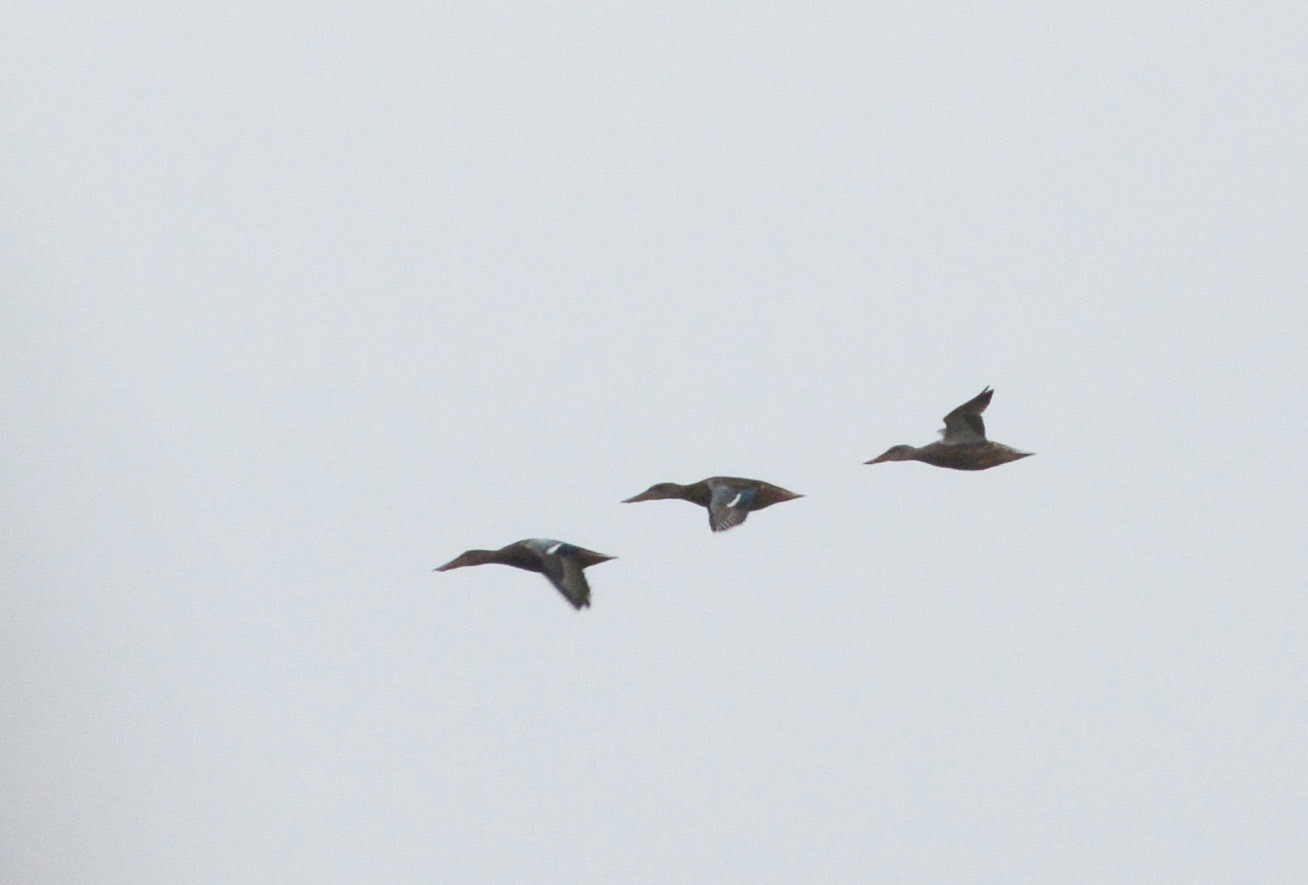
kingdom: Animalia
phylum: Chordata
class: Aves
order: Anseriformes
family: Anatidae
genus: Spatula
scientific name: Spatula clypeata
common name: Northern shoveler
